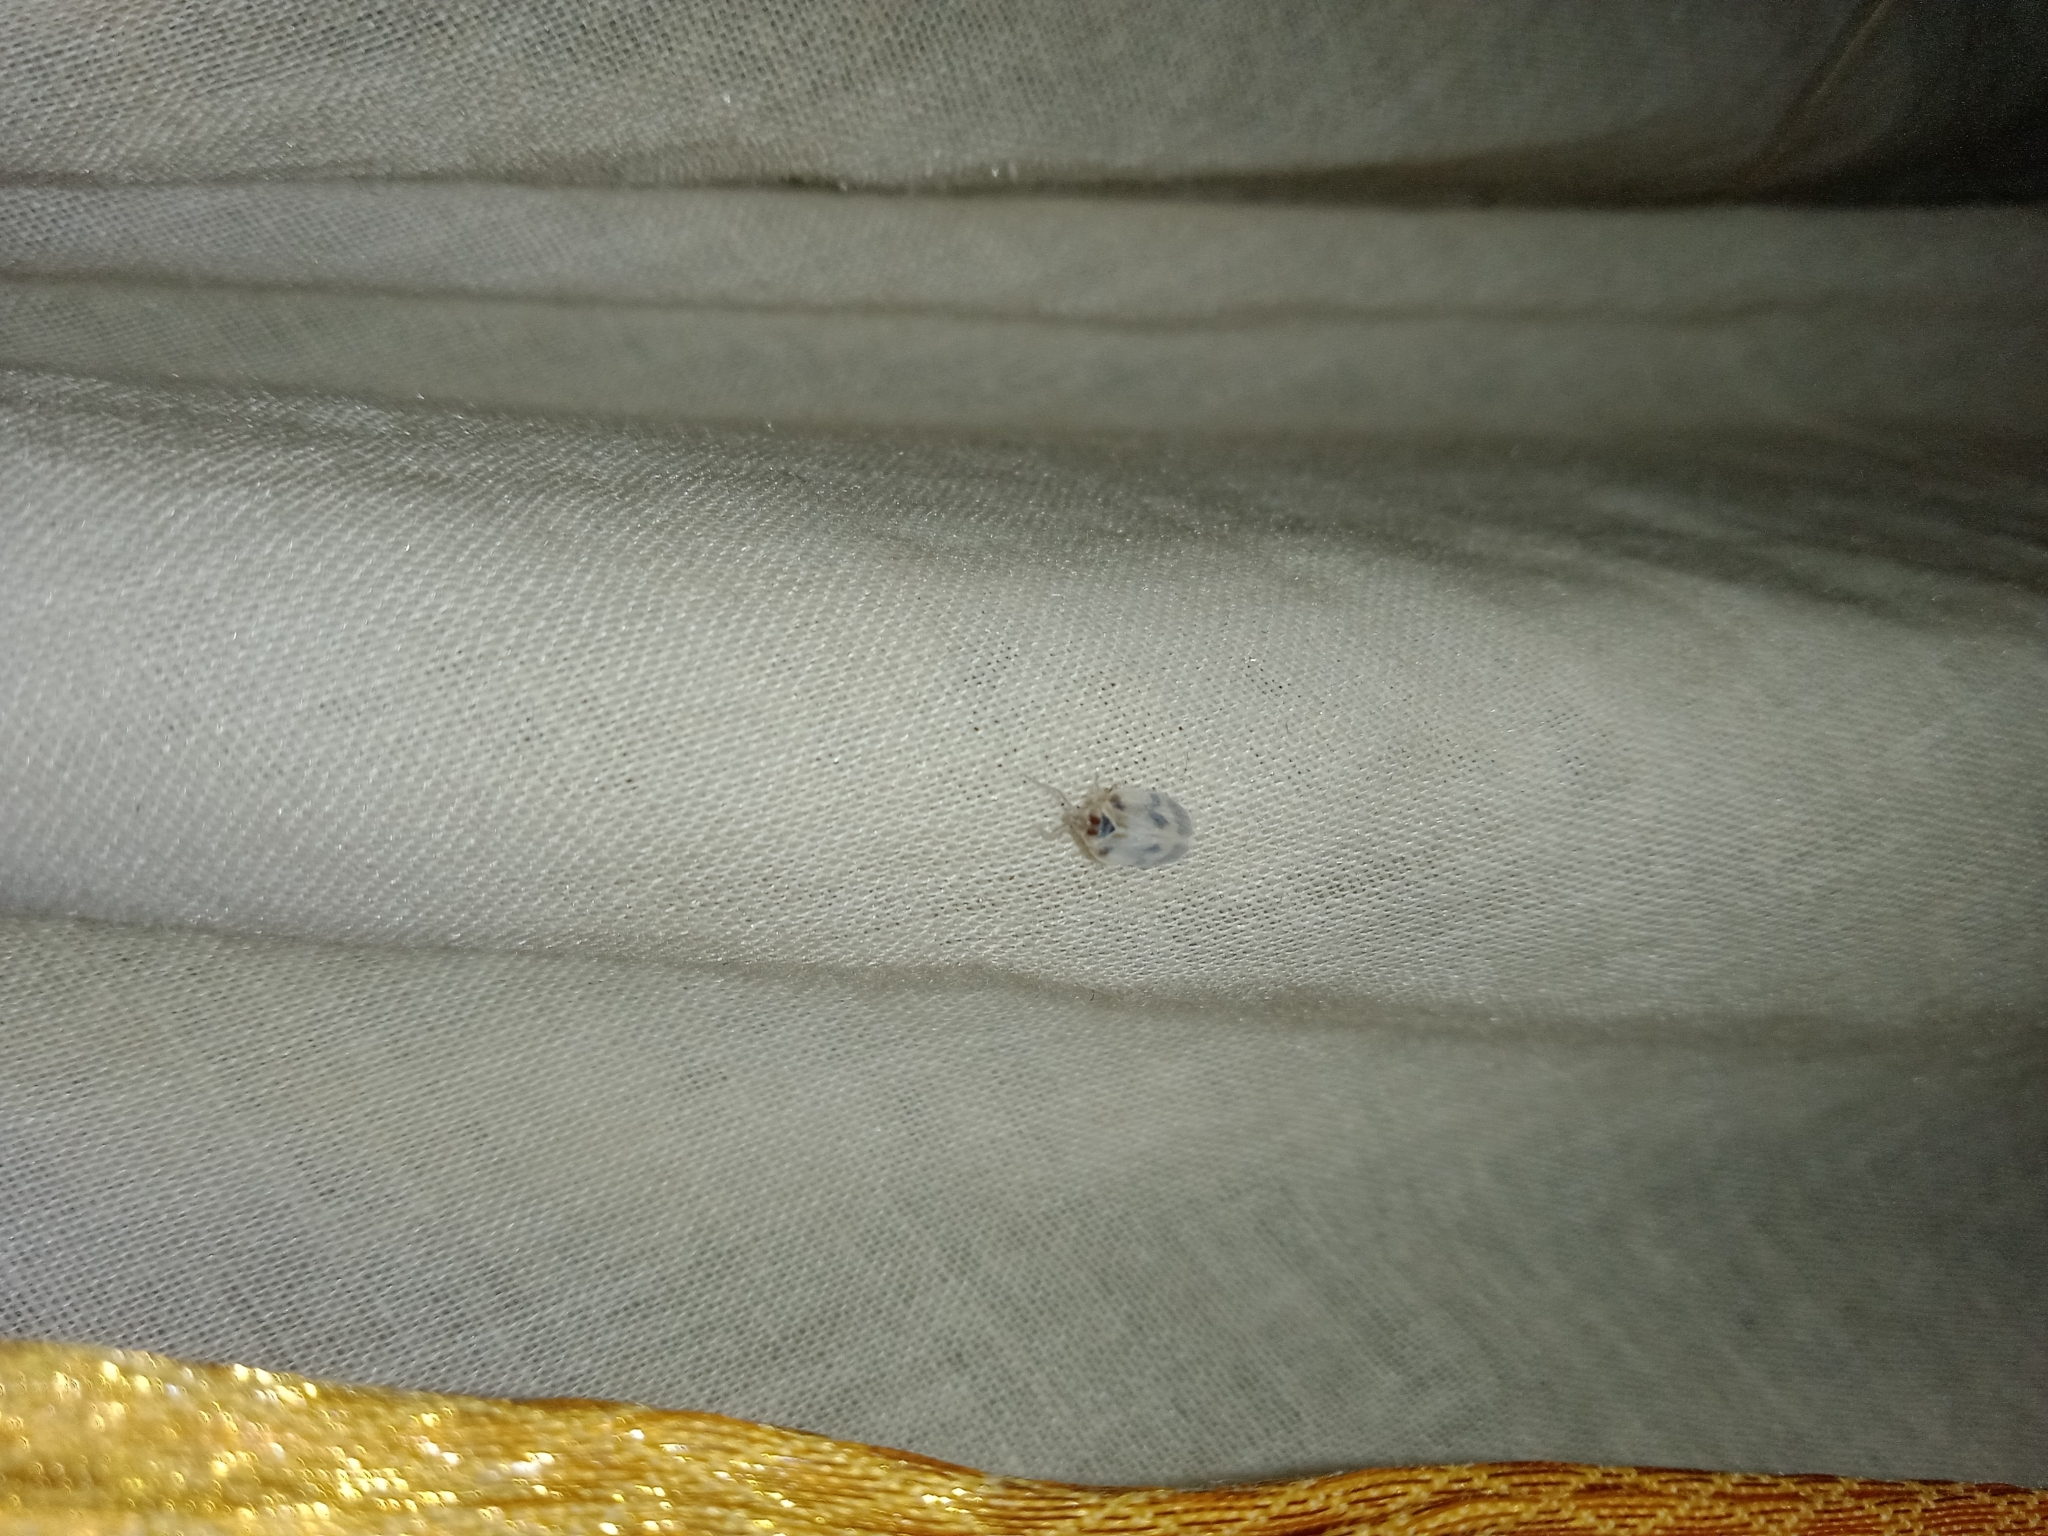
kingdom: Animalia
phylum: Arthropoda
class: Insecta
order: Hemiptera
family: Kinnaridae
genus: Kinnara
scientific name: Kinnara maculata
